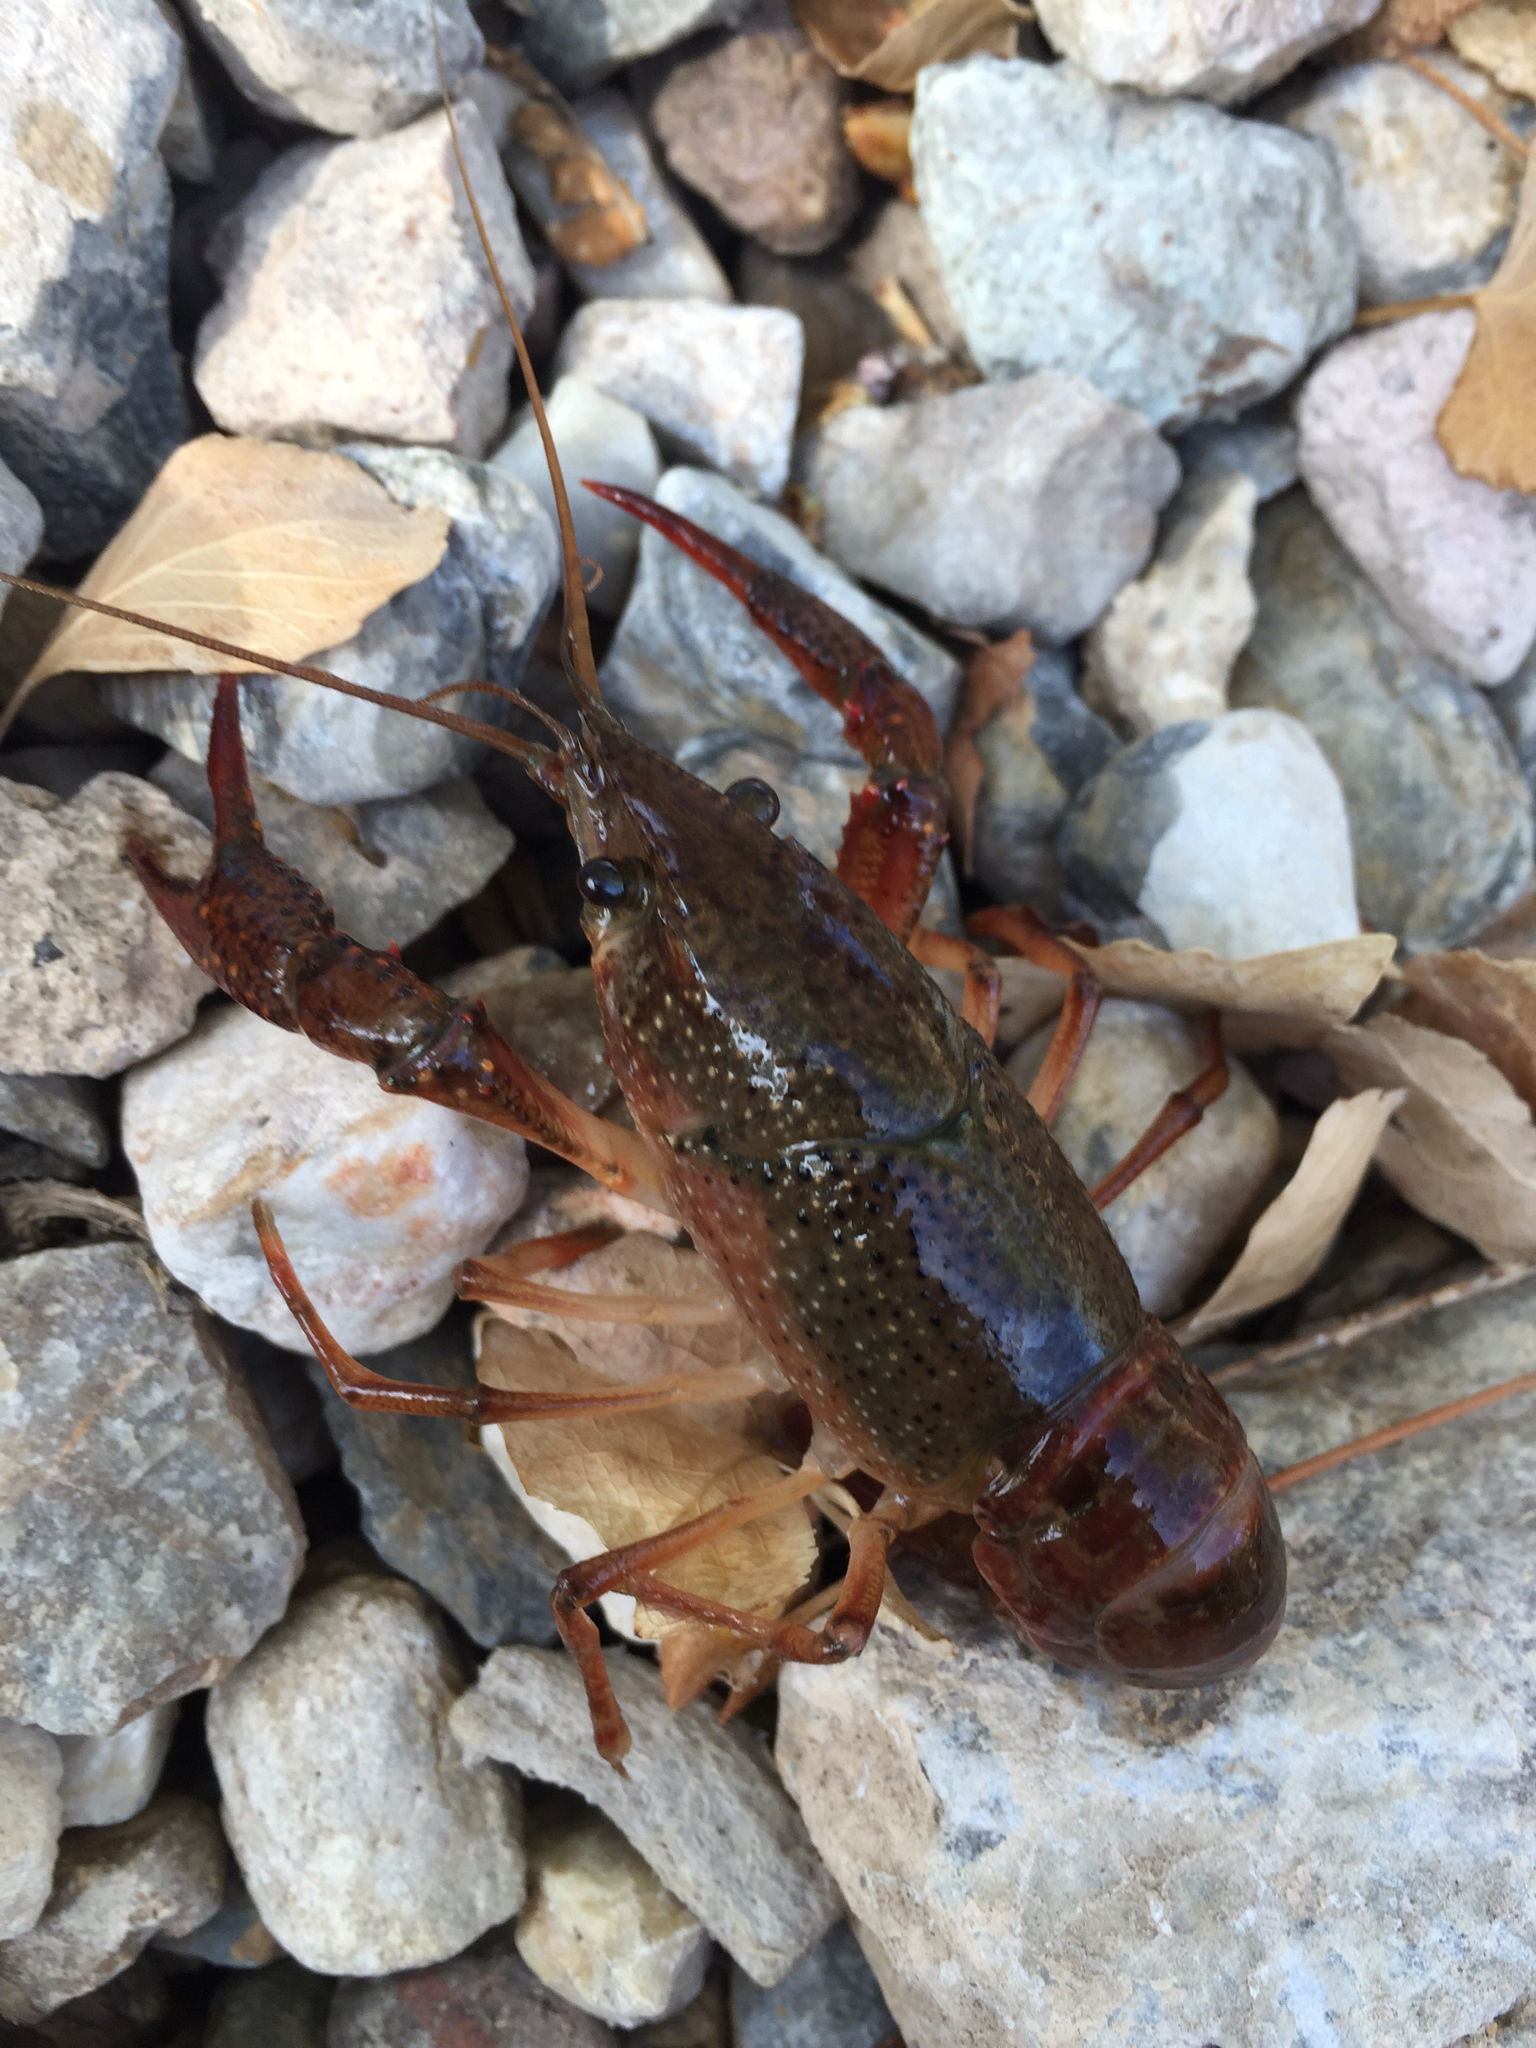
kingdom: Animalia
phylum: Arthropoda
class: Malacostraca
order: Decapoda
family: Cambaridae
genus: Procambarus
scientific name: Procambarus clarkii
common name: Red swamp crayfish
